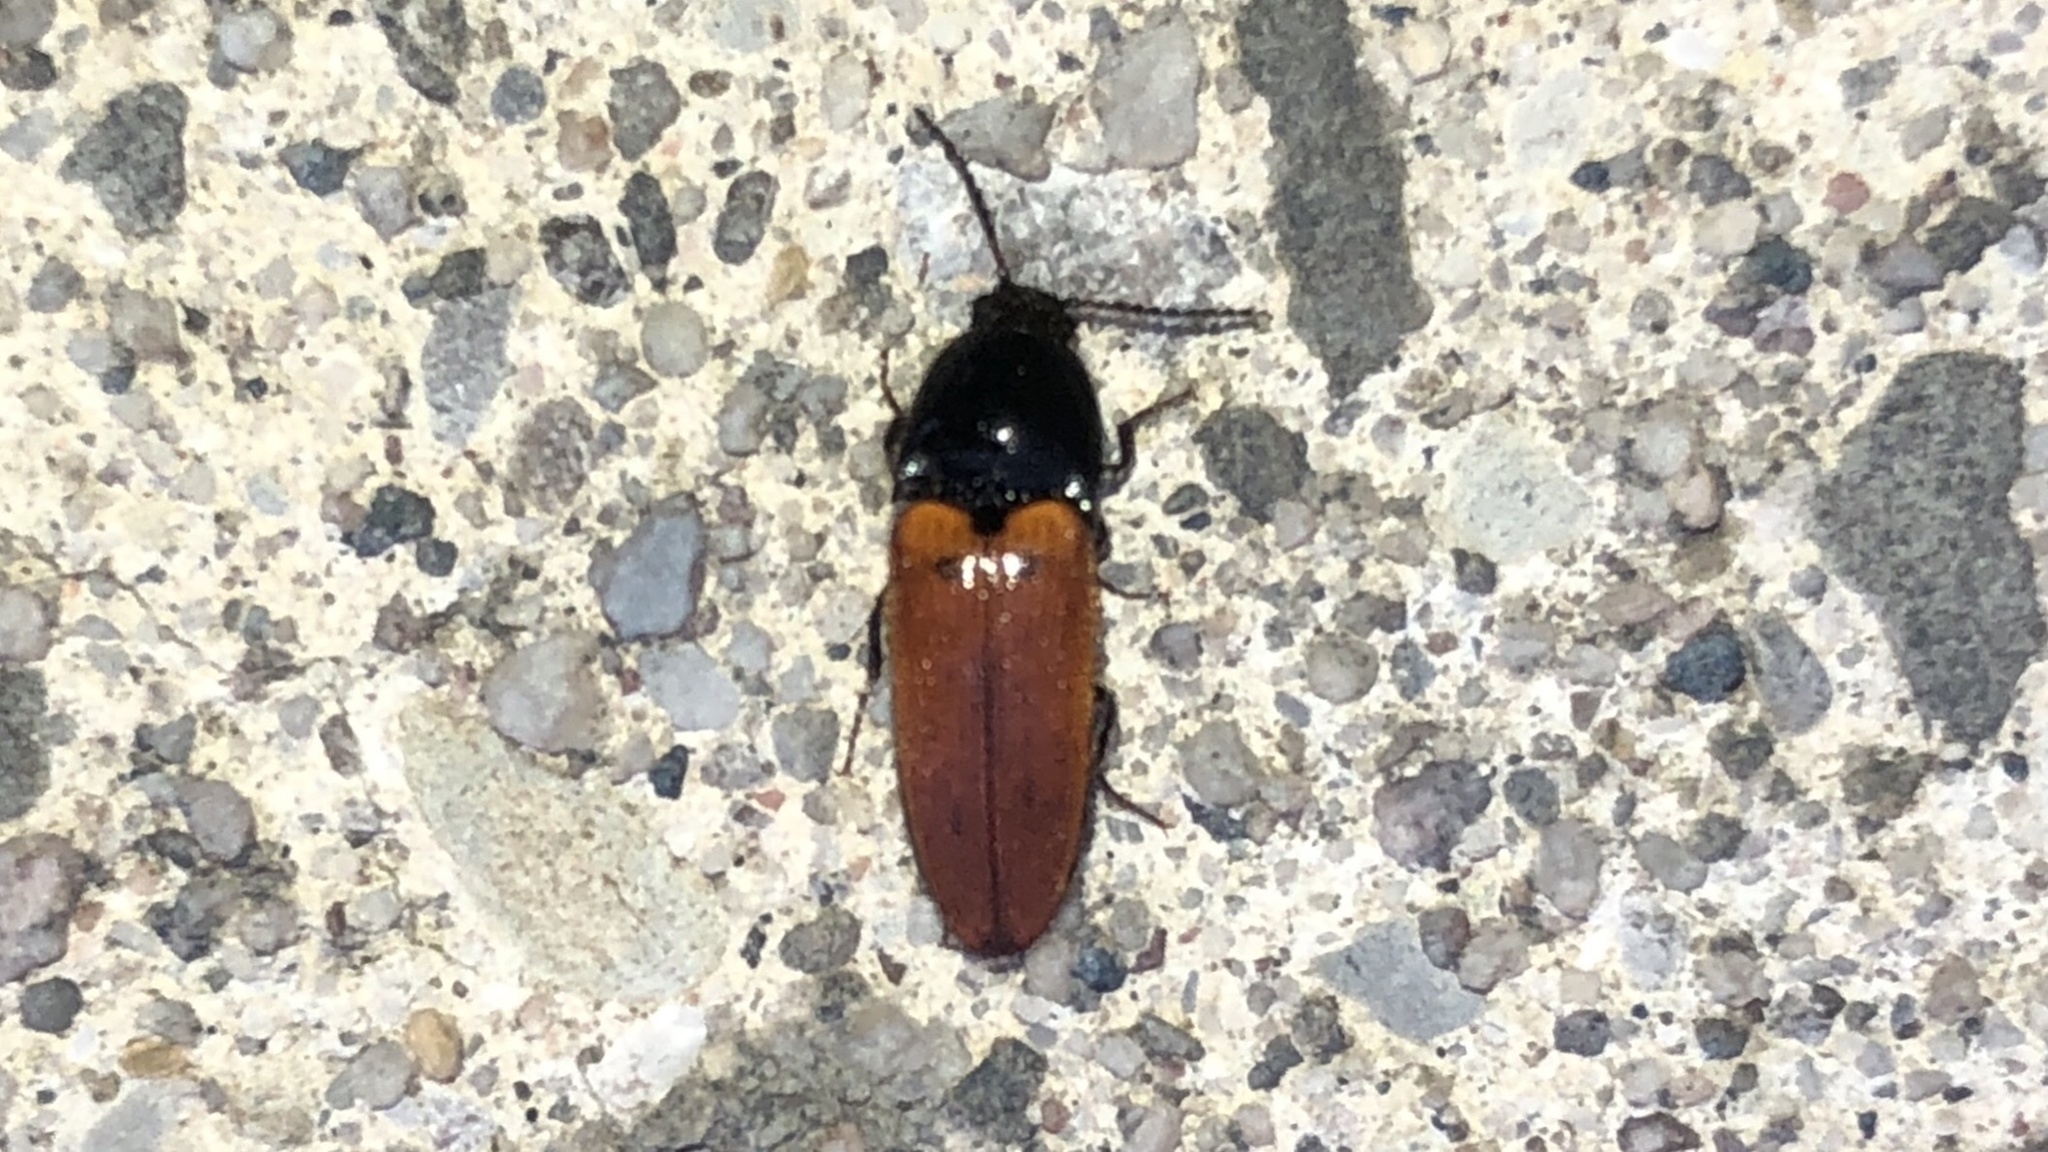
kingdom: Animalia
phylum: Arthropoda
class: Insecta
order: Coleoptera
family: Elateridae
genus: Ampedus
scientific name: Ampedus sanguinipennis
